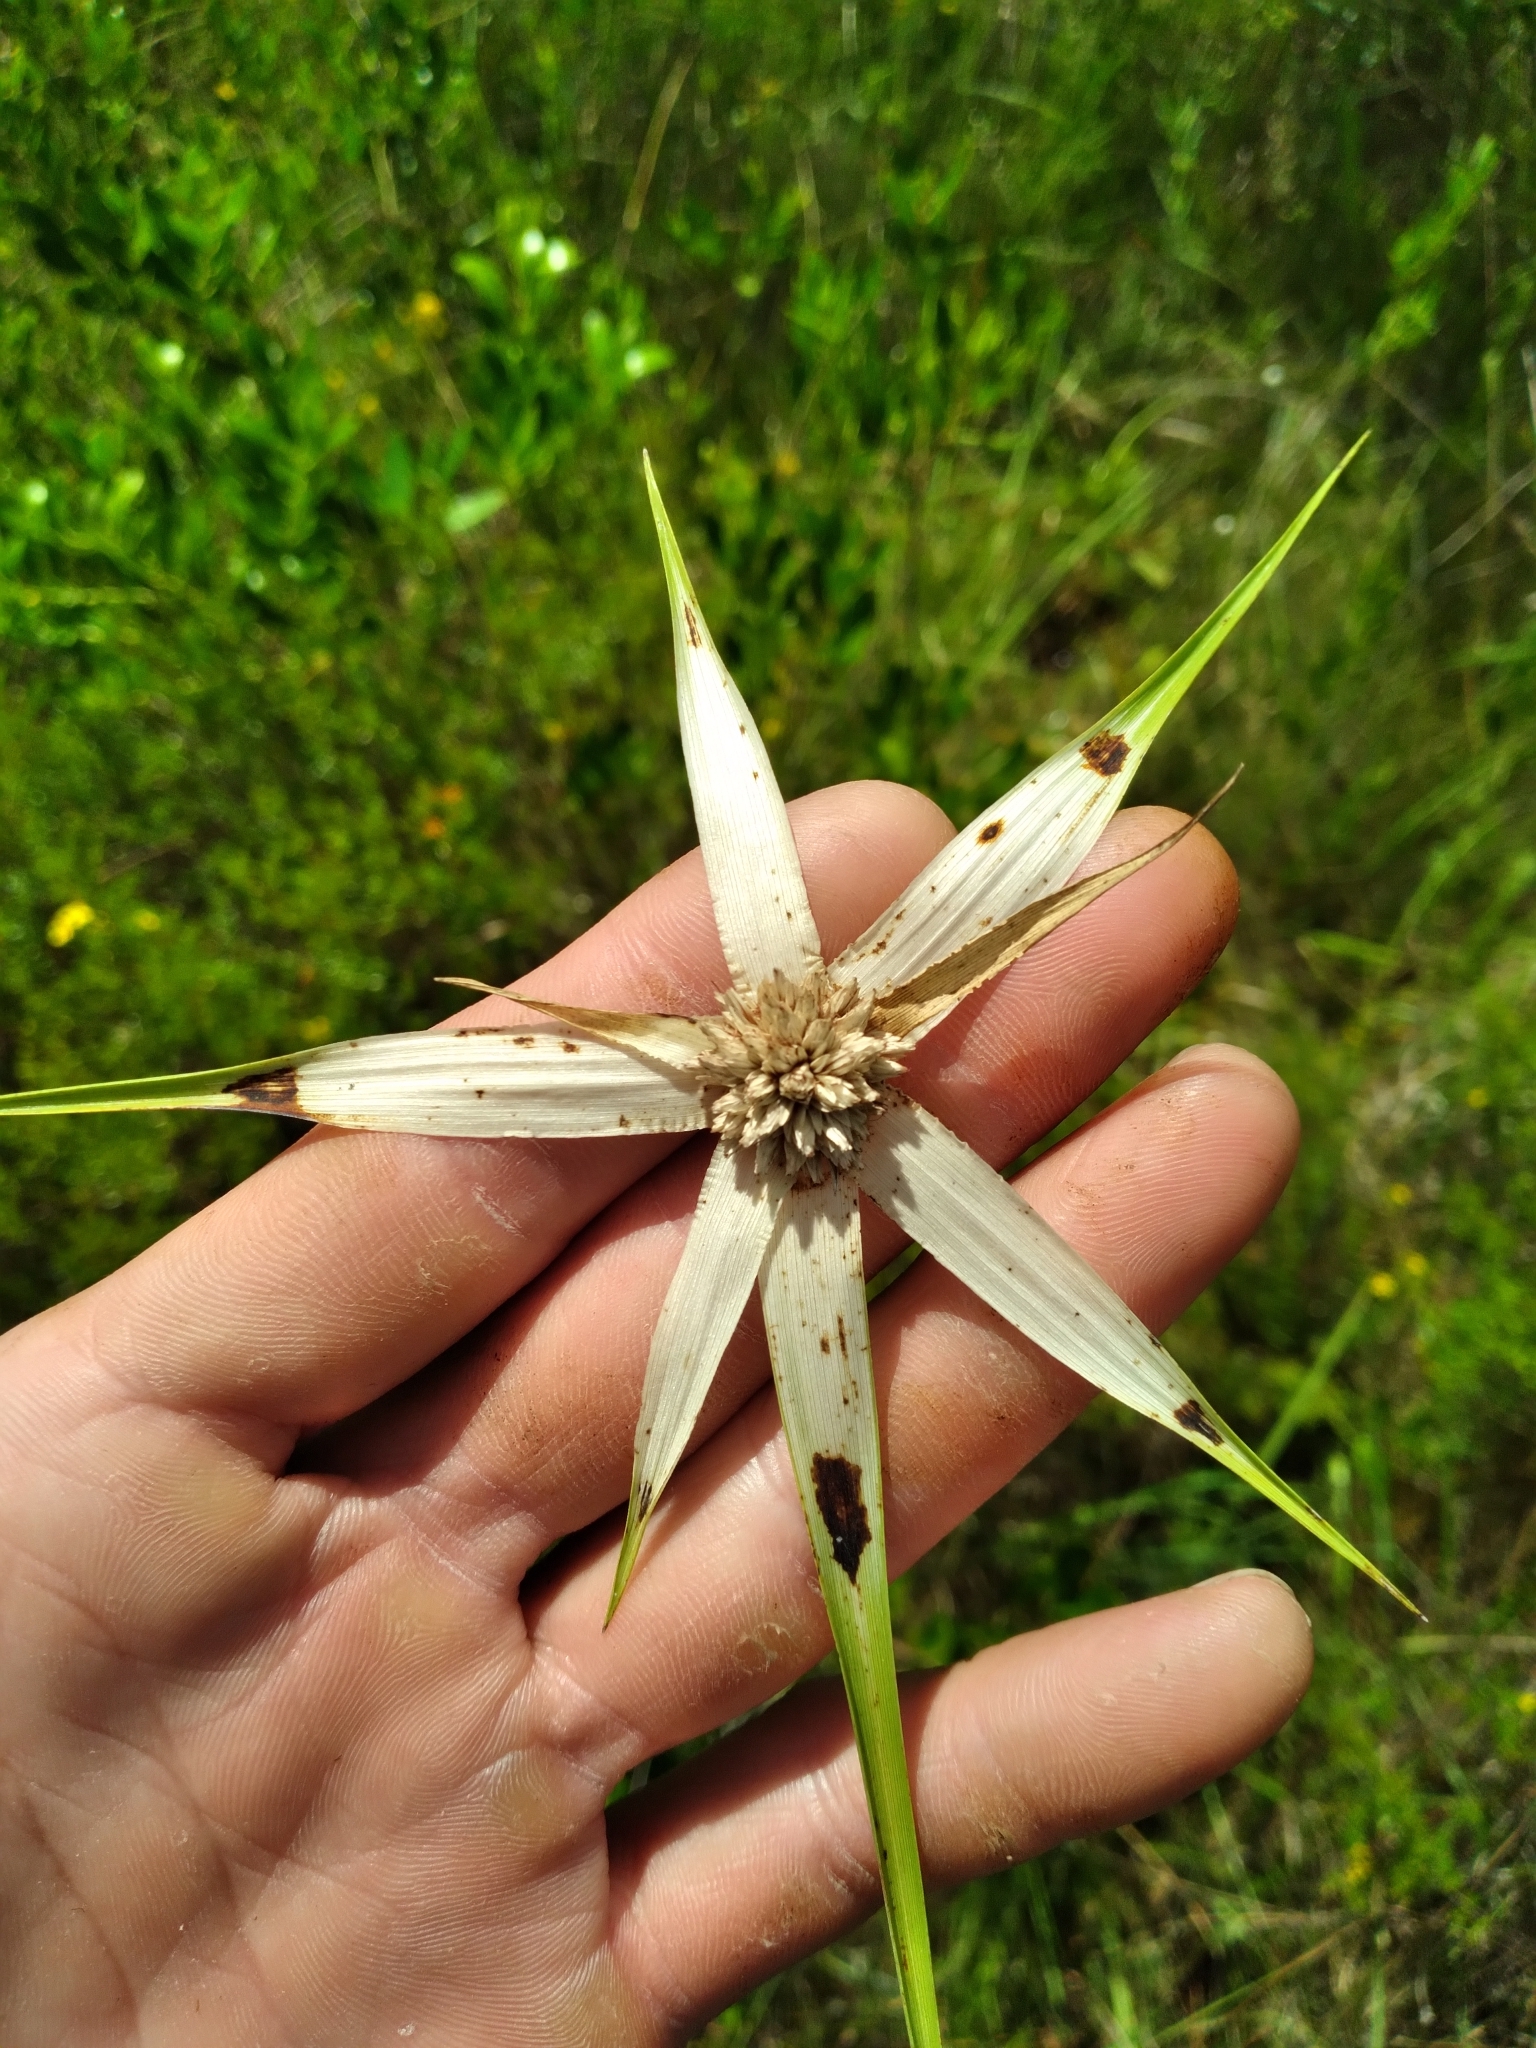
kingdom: Plantae
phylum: Tracheophyta
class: Liliopsida
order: Poales
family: Cyperaceae
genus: Rhynchospora
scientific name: Rhynchospora latifolia
